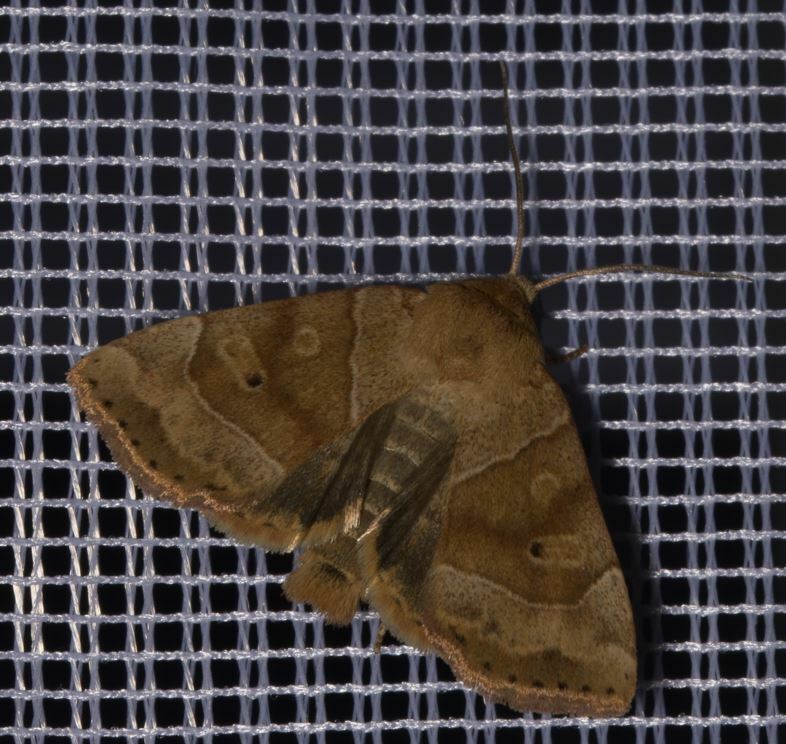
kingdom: Animalia
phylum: Arthropoda
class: Insecta
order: Lepidoptera
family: Noctuidae
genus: Cosmia
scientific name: Cosmia trapezina
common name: Dun-bar
